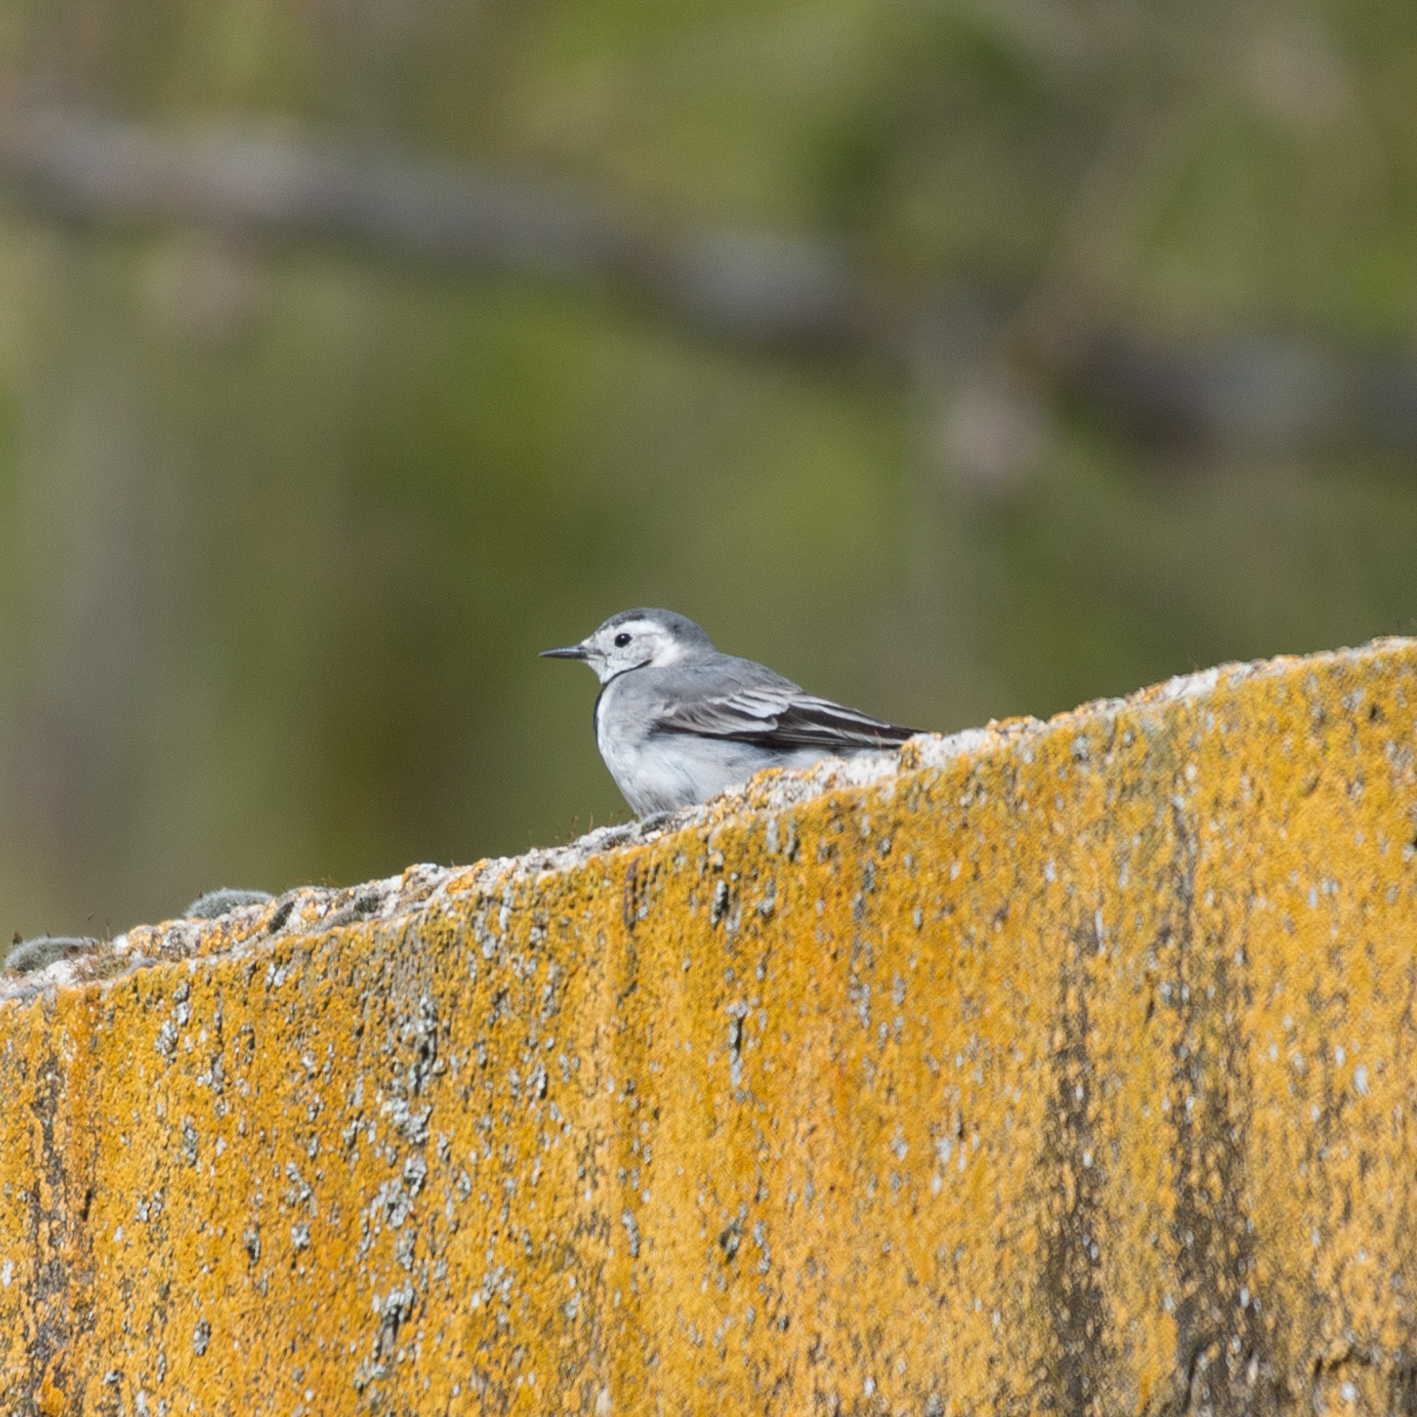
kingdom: Animalia
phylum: Chordata
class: Aves
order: Passeriformes
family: Motacillidae
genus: Motacilla
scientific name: Motacilla alba
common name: White wagtail
